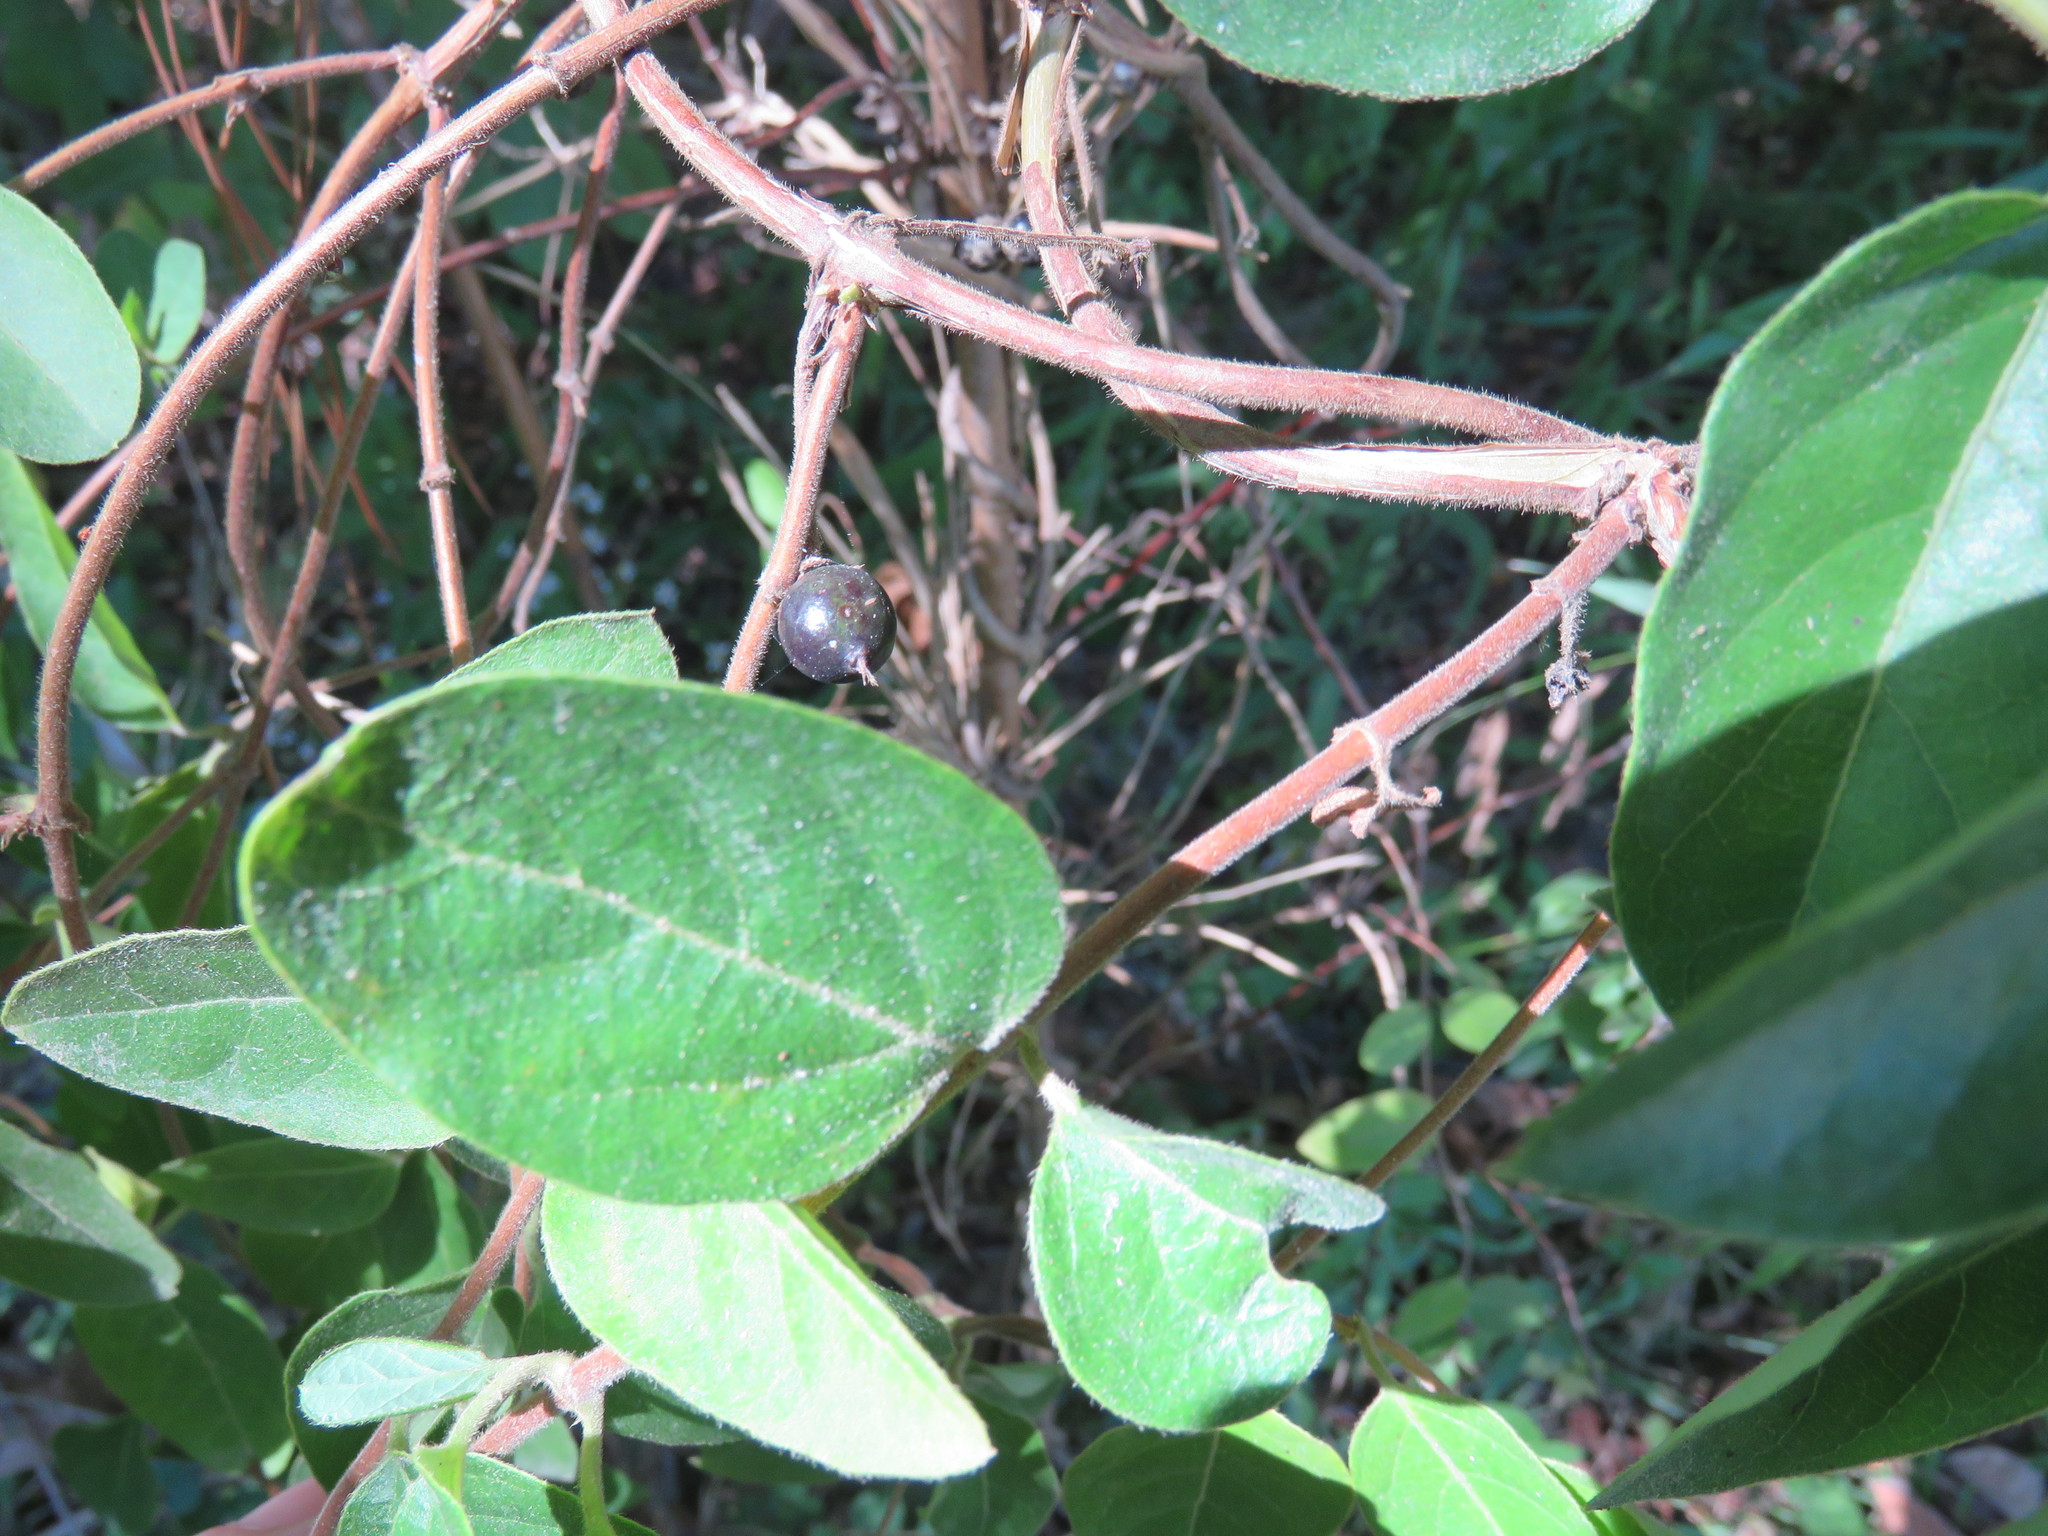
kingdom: Plantae
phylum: Tracheophyta
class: Magnoliopsida
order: Dipsacales
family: Caprifoliaceae
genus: Lonicera
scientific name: Lonicera japonica
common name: Japanese honeysuckle
